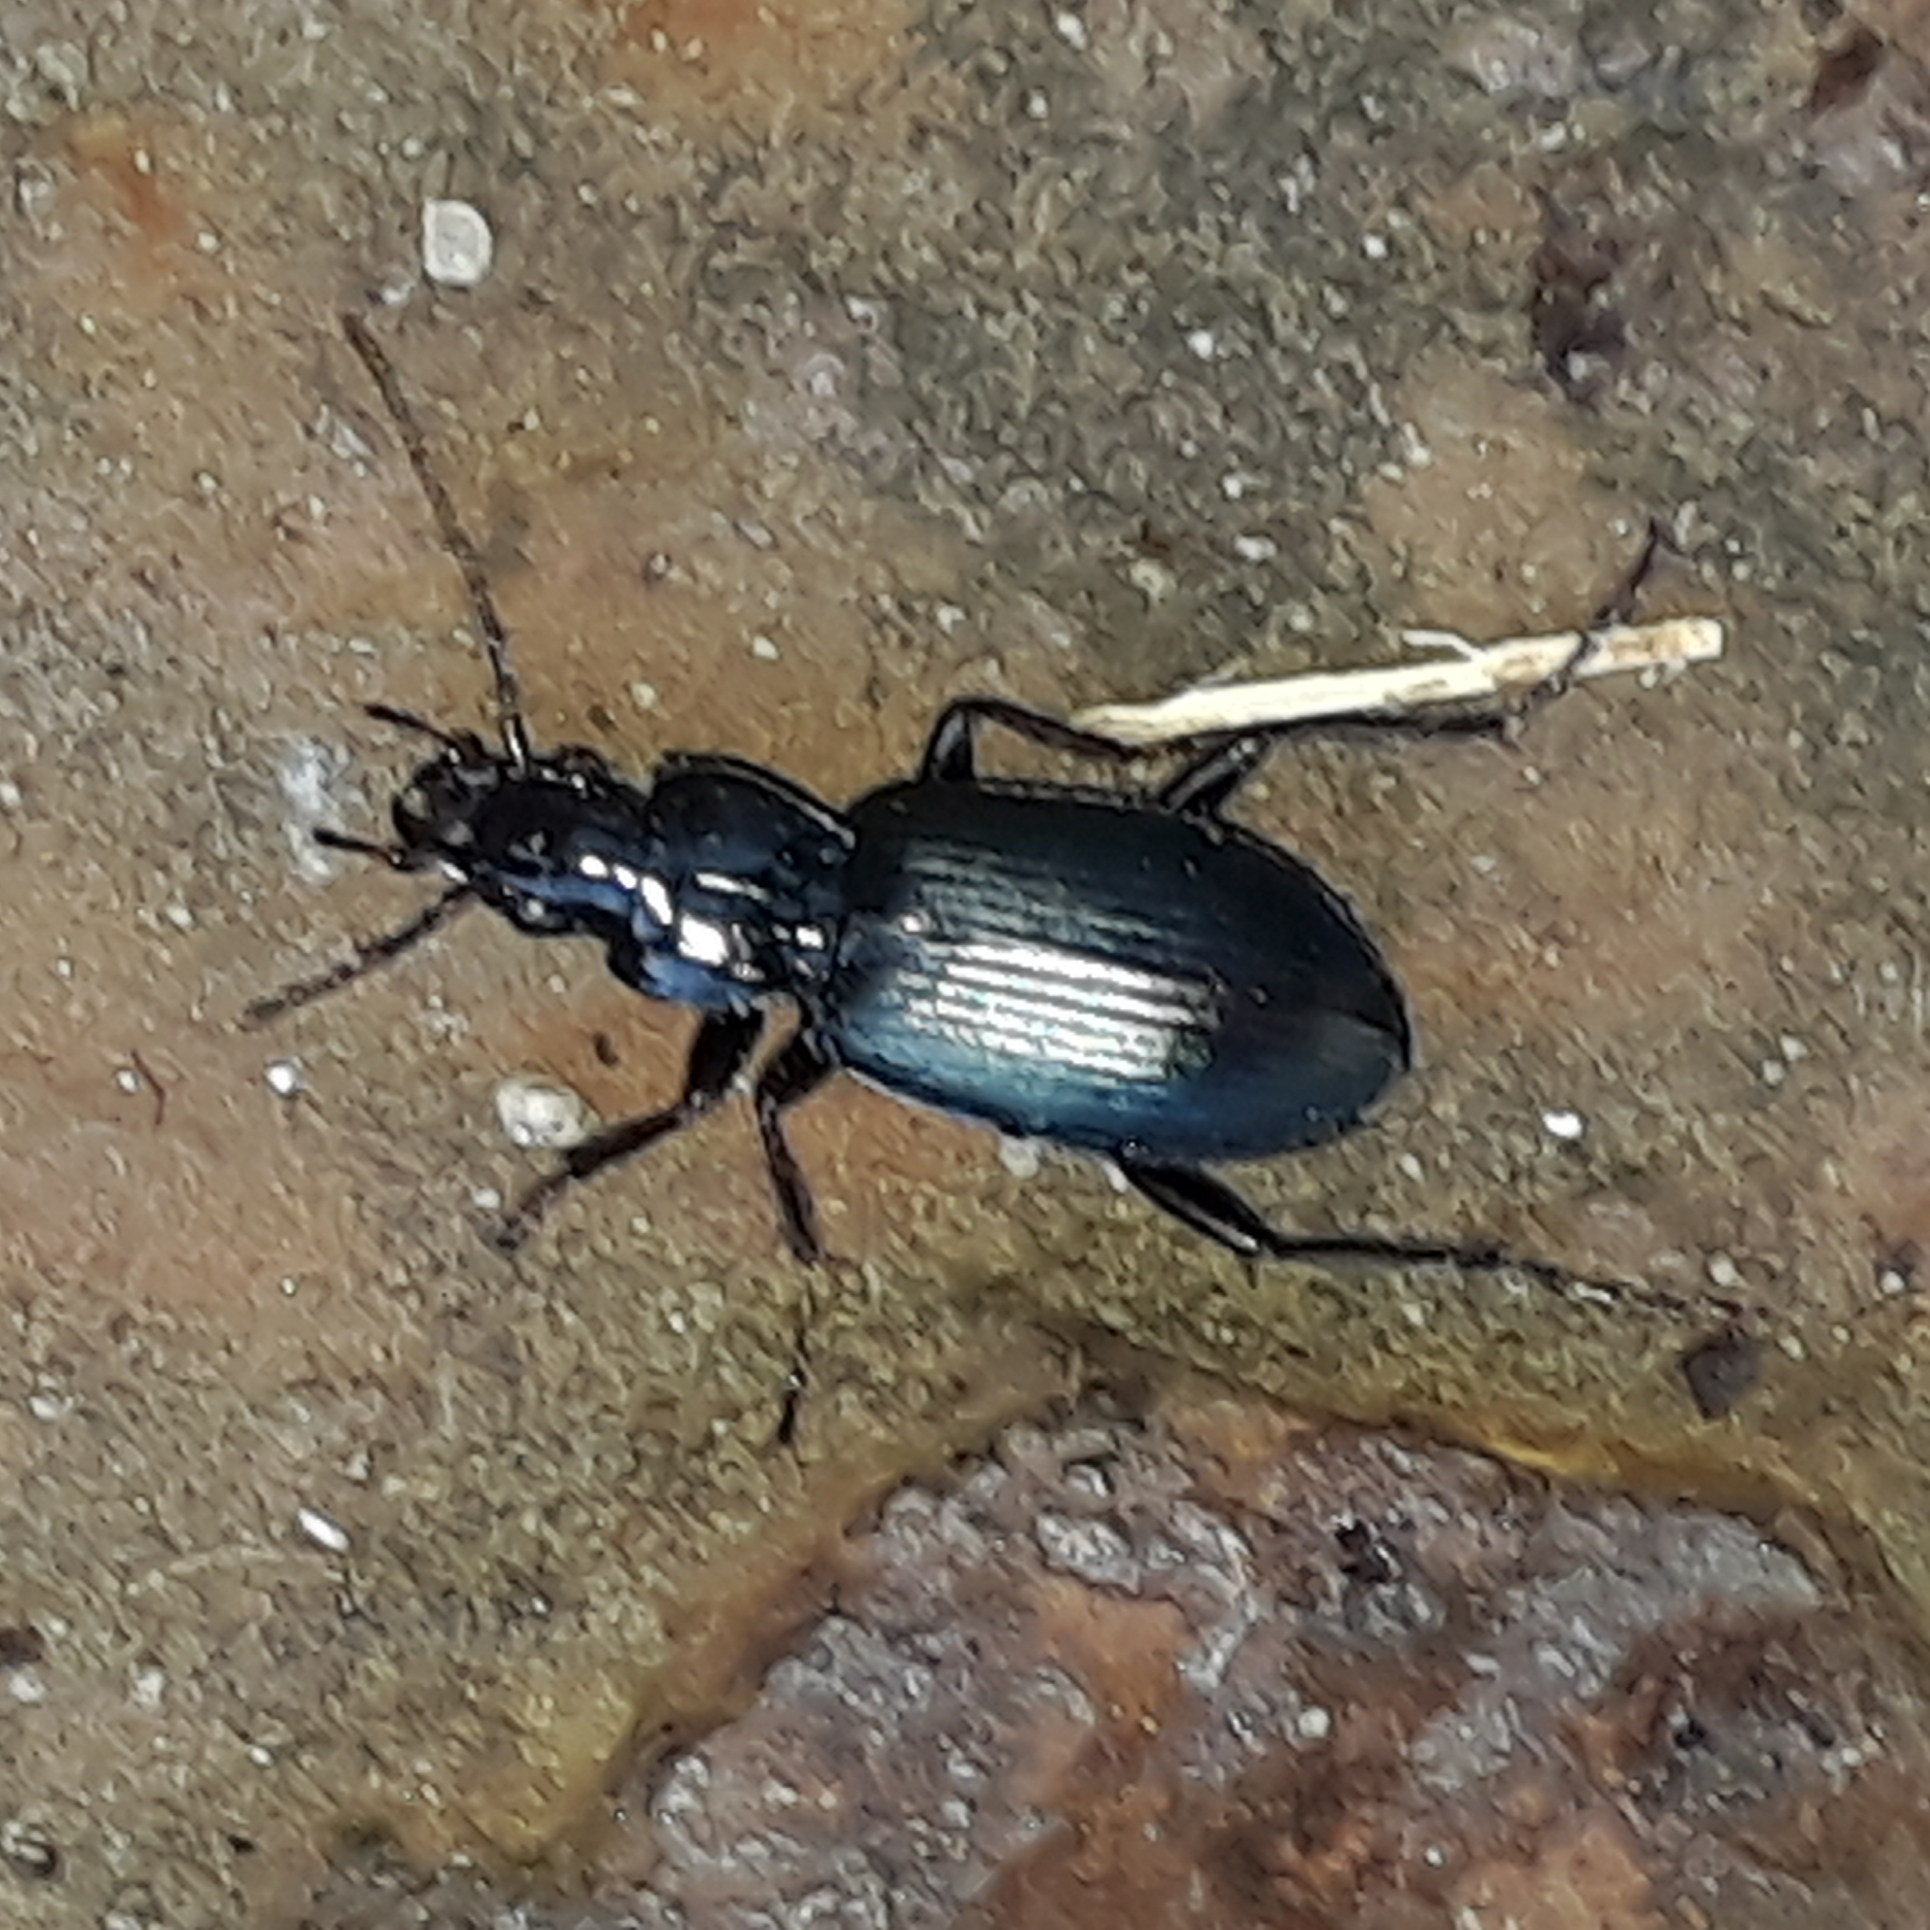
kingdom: Animalia
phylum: Arthropoda
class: Insecta
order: Coleoptera
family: Carabidae
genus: Laemostenus
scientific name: Laemostenus complanatus
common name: Cosmopolitan ground beetle
